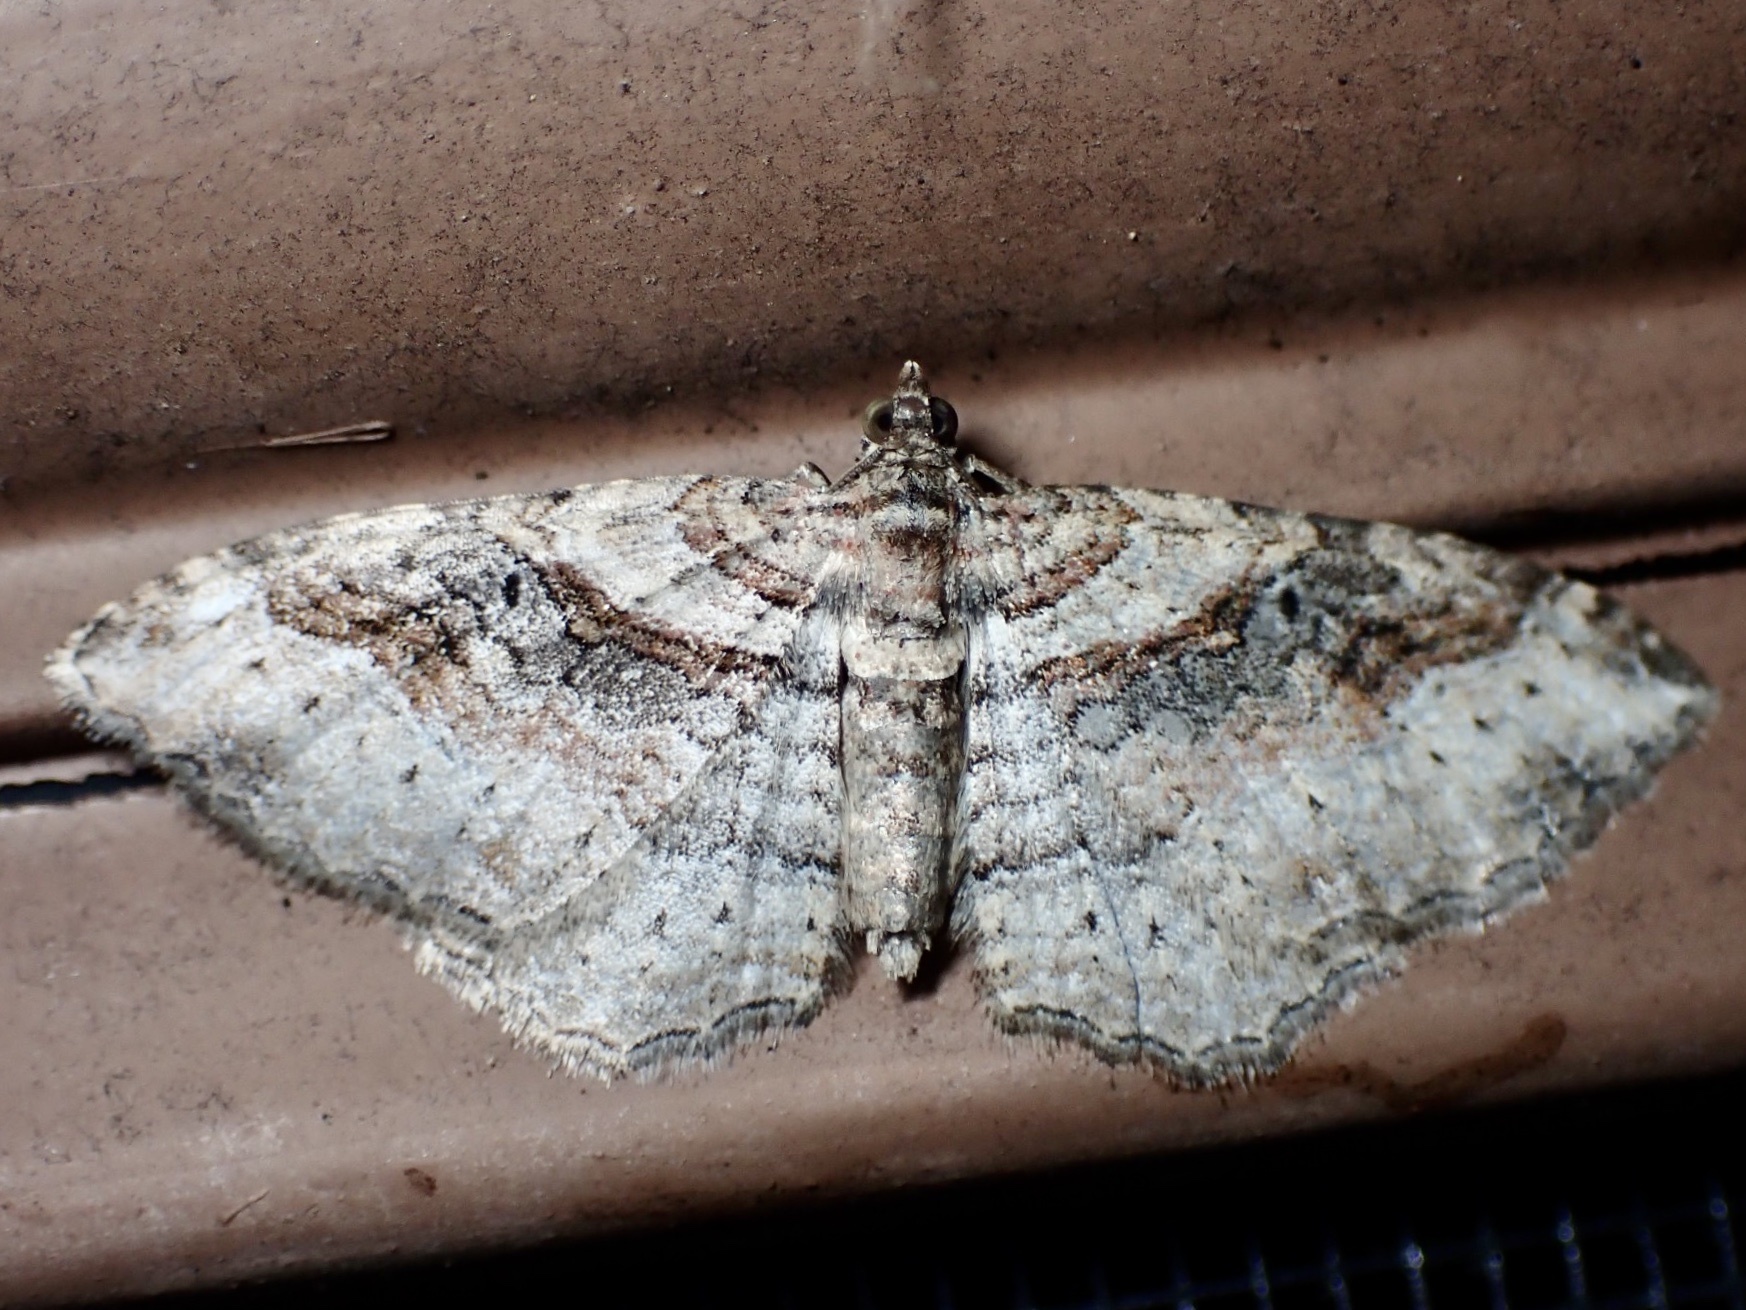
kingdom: Animalia
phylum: Arthropoda
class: Insecta
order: Lepidoptera
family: Geometridae
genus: Costaconvexa
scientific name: Costaconvexa centrostrigaria
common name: Bent-line carpet
